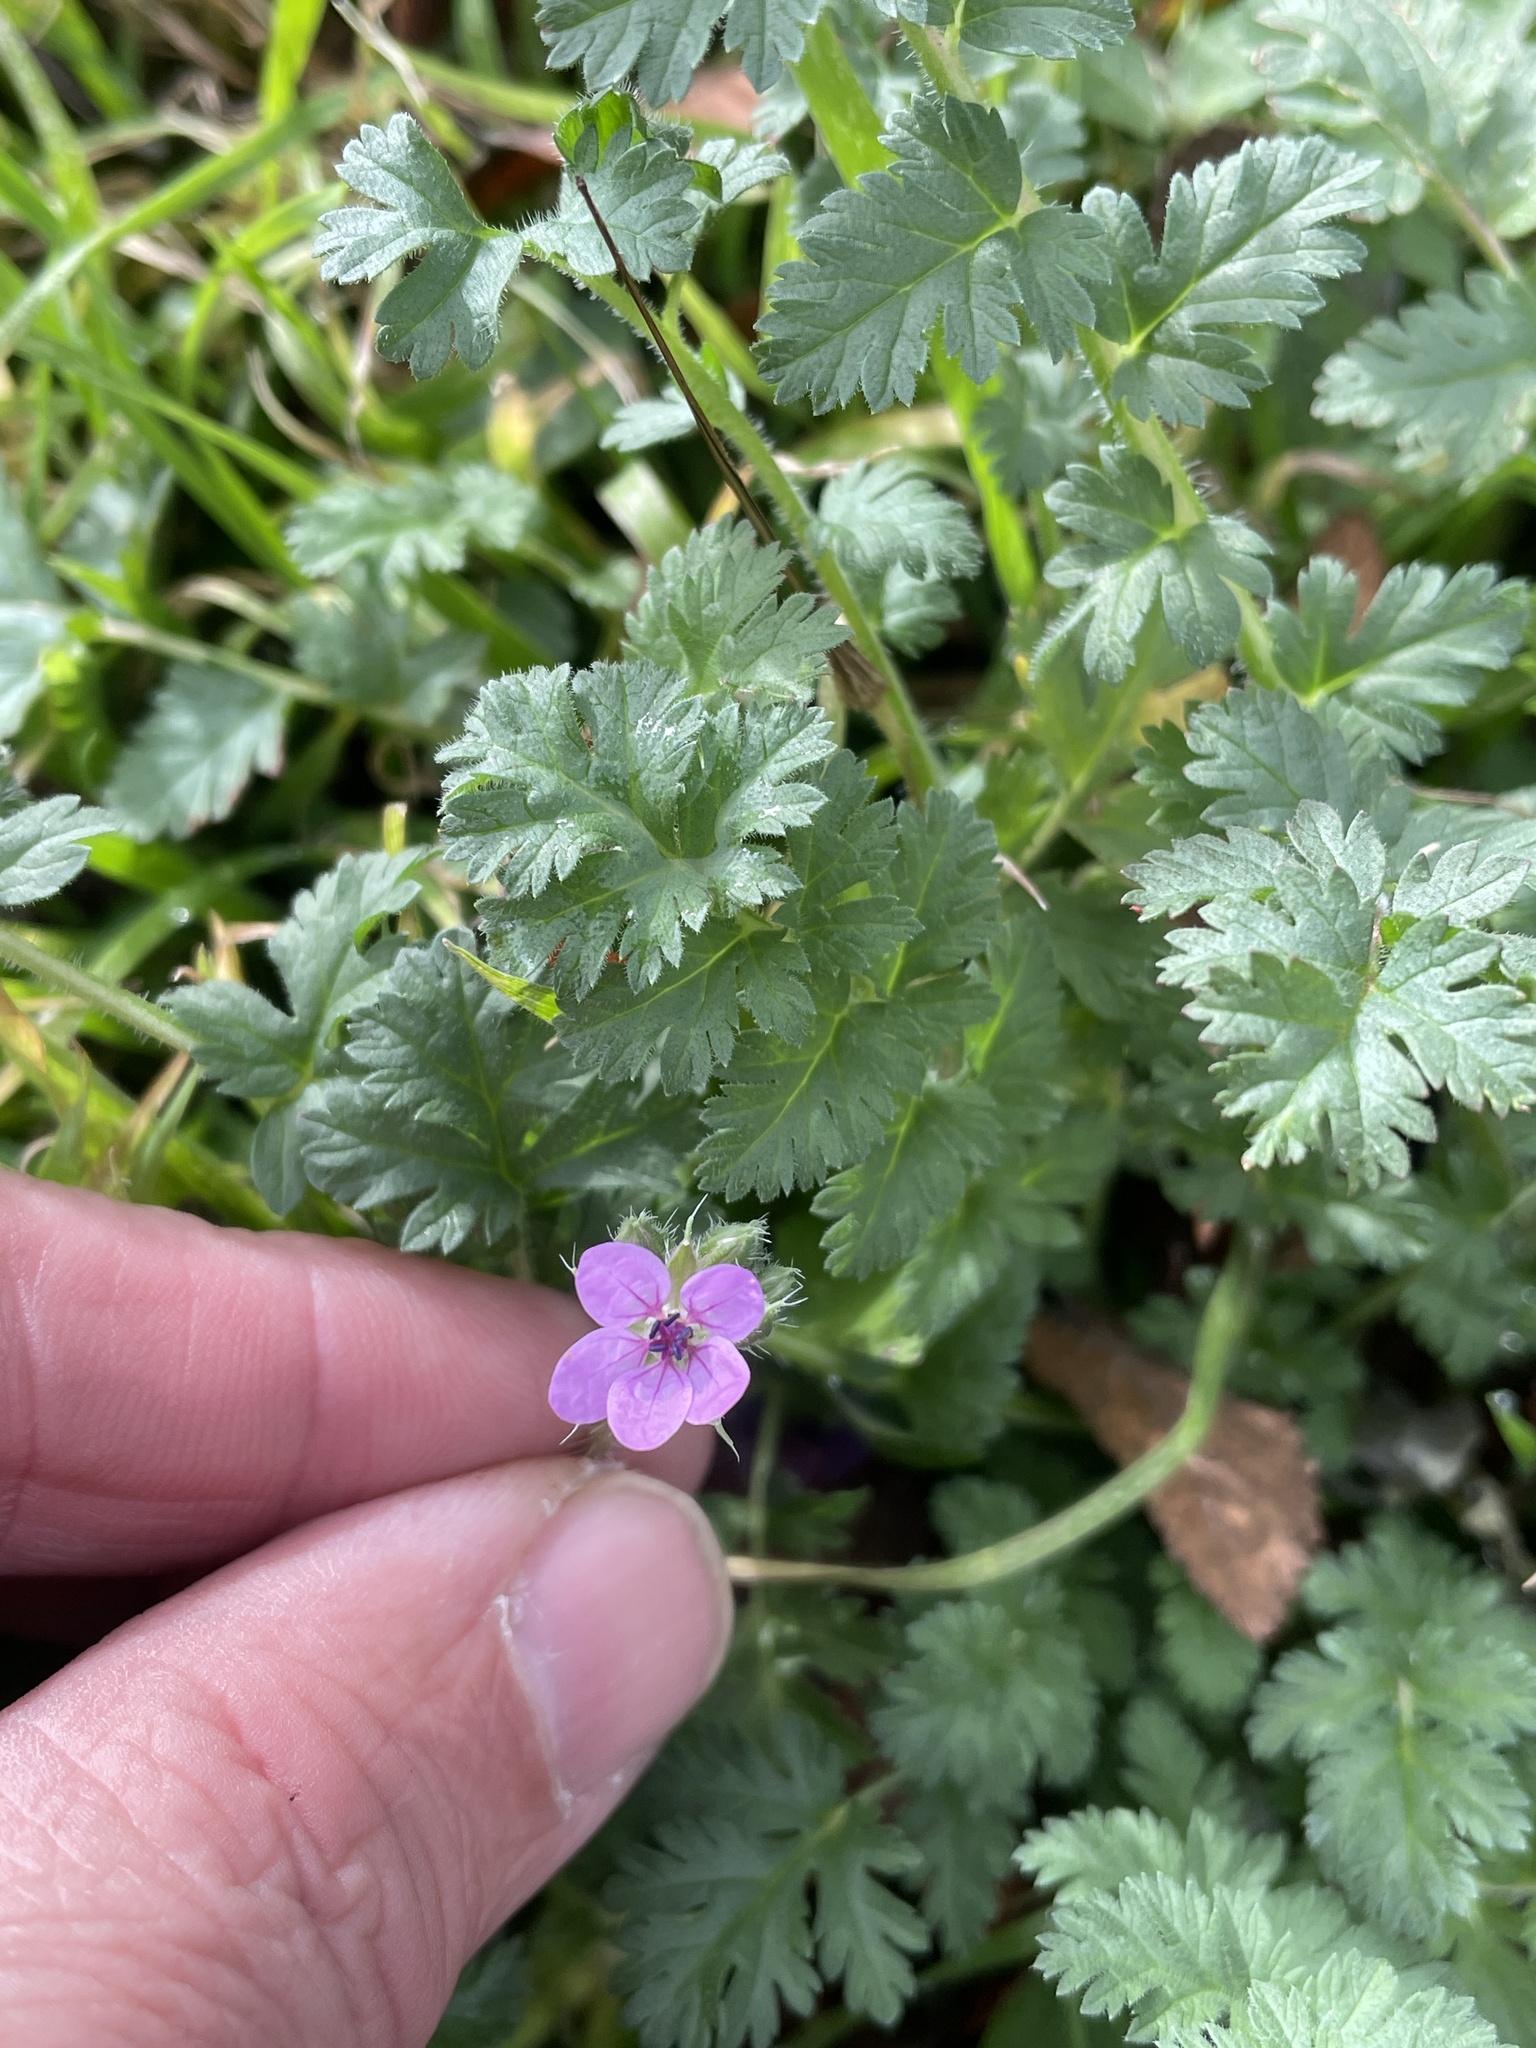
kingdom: Plantae
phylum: Tracheophyta
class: Magnoliopsida
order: Geraniales
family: Geraniaceae
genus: Erodium
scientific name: Erodium cicutarium
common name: Common stork's-bill
